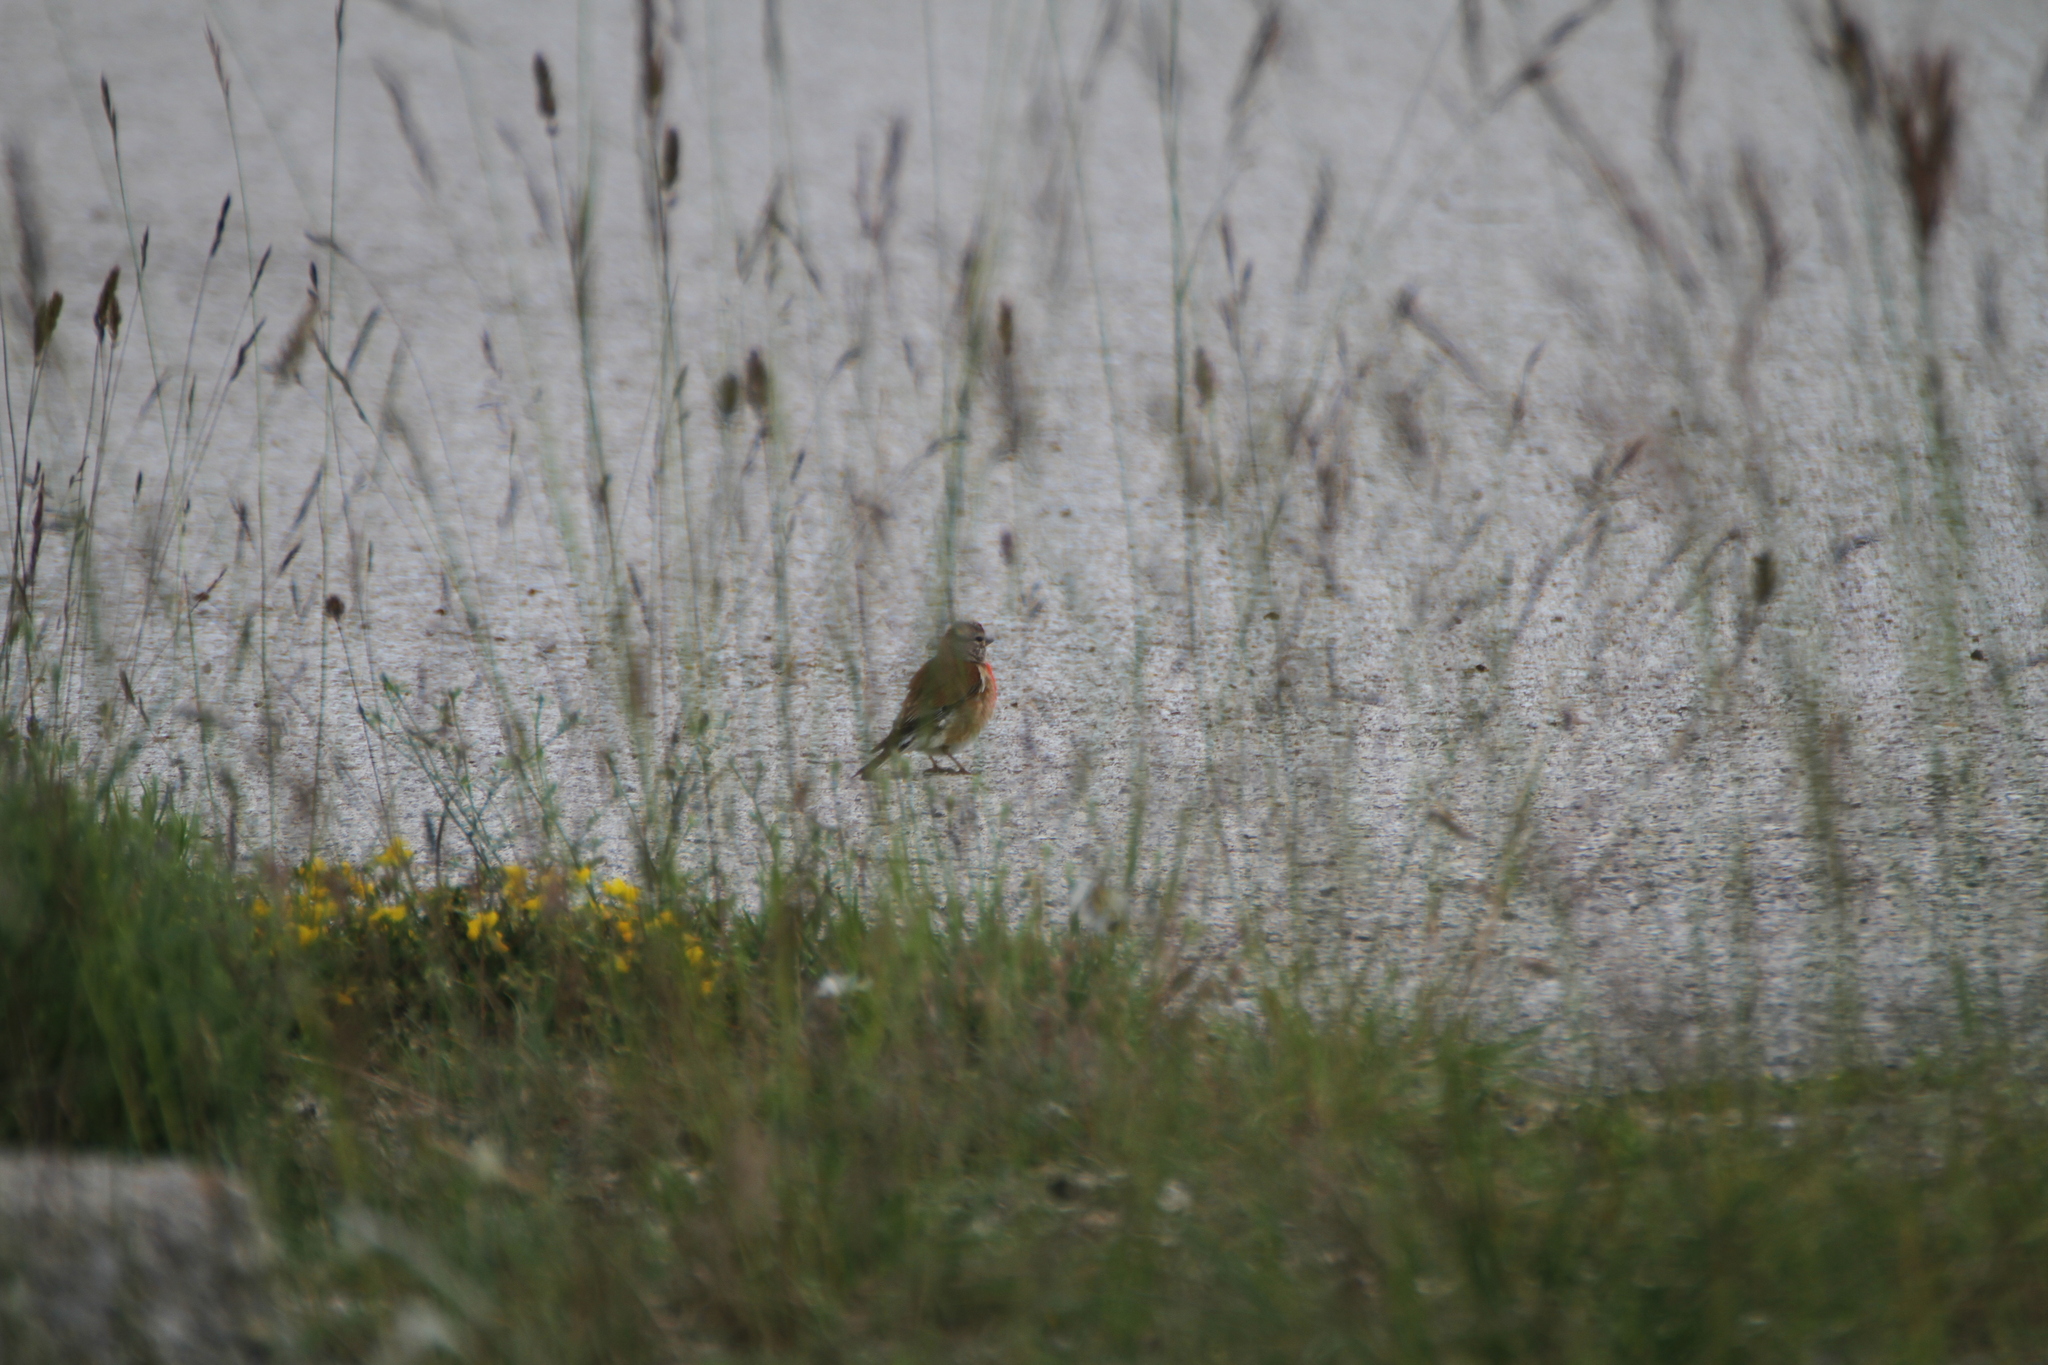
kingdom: Animalia
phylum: Chordata
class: Aves
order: Passeriformes
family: Fringillidae
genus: Linaria
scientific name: Linaria cannabina
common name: Common linnet
